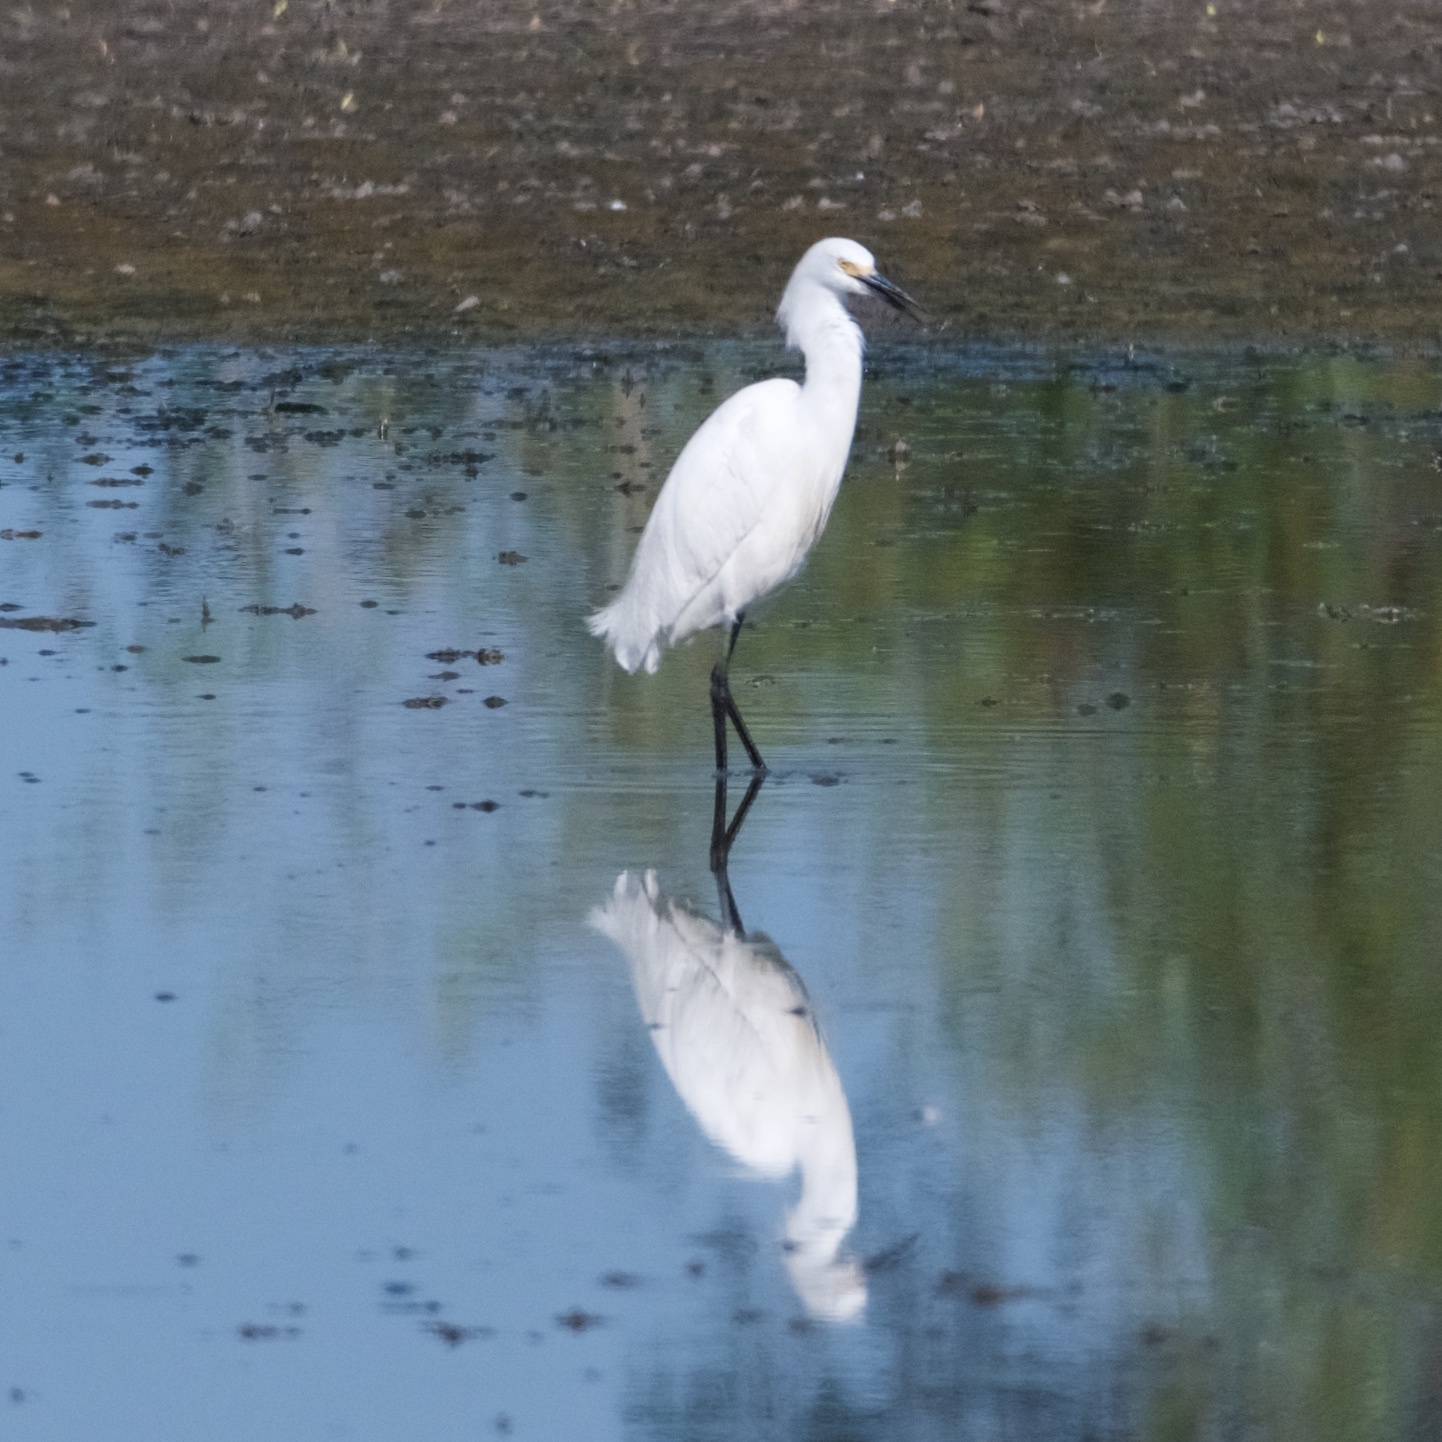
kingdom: Animalia
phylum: Chordata
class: Aves
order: Pelecaniformes
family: Ardeidae
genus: Egretta
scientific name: Egretta thula
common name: Snowy egret
